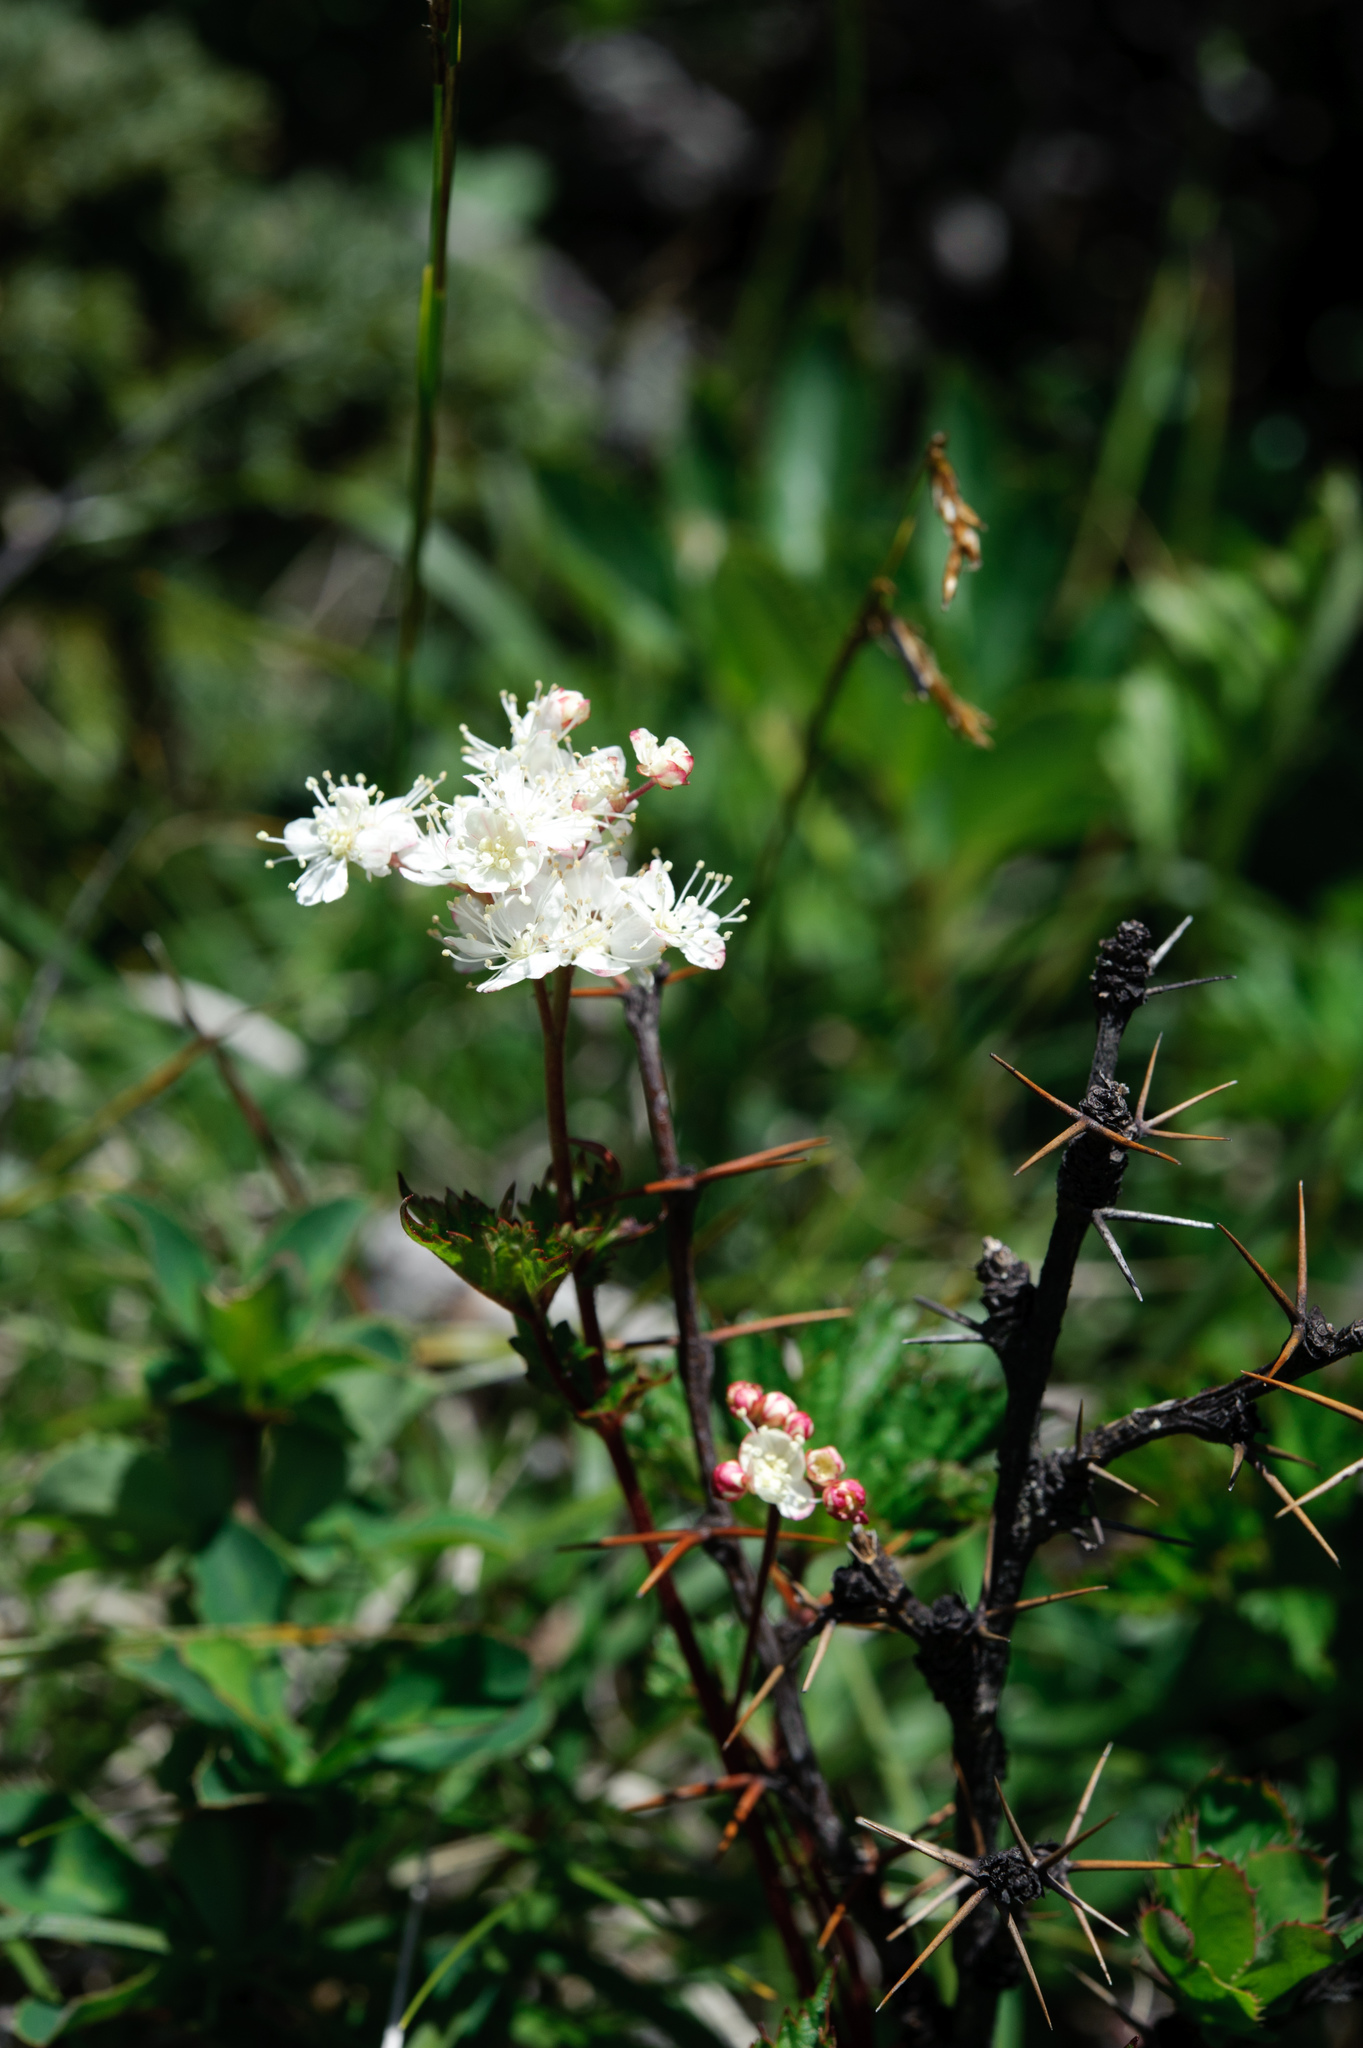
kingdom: Plantae
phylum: Tracheophyta
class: Magnoliopsida
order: Rosales
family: Rosaceae
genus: Filipendula
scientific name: Filipendula kiraishiensis
